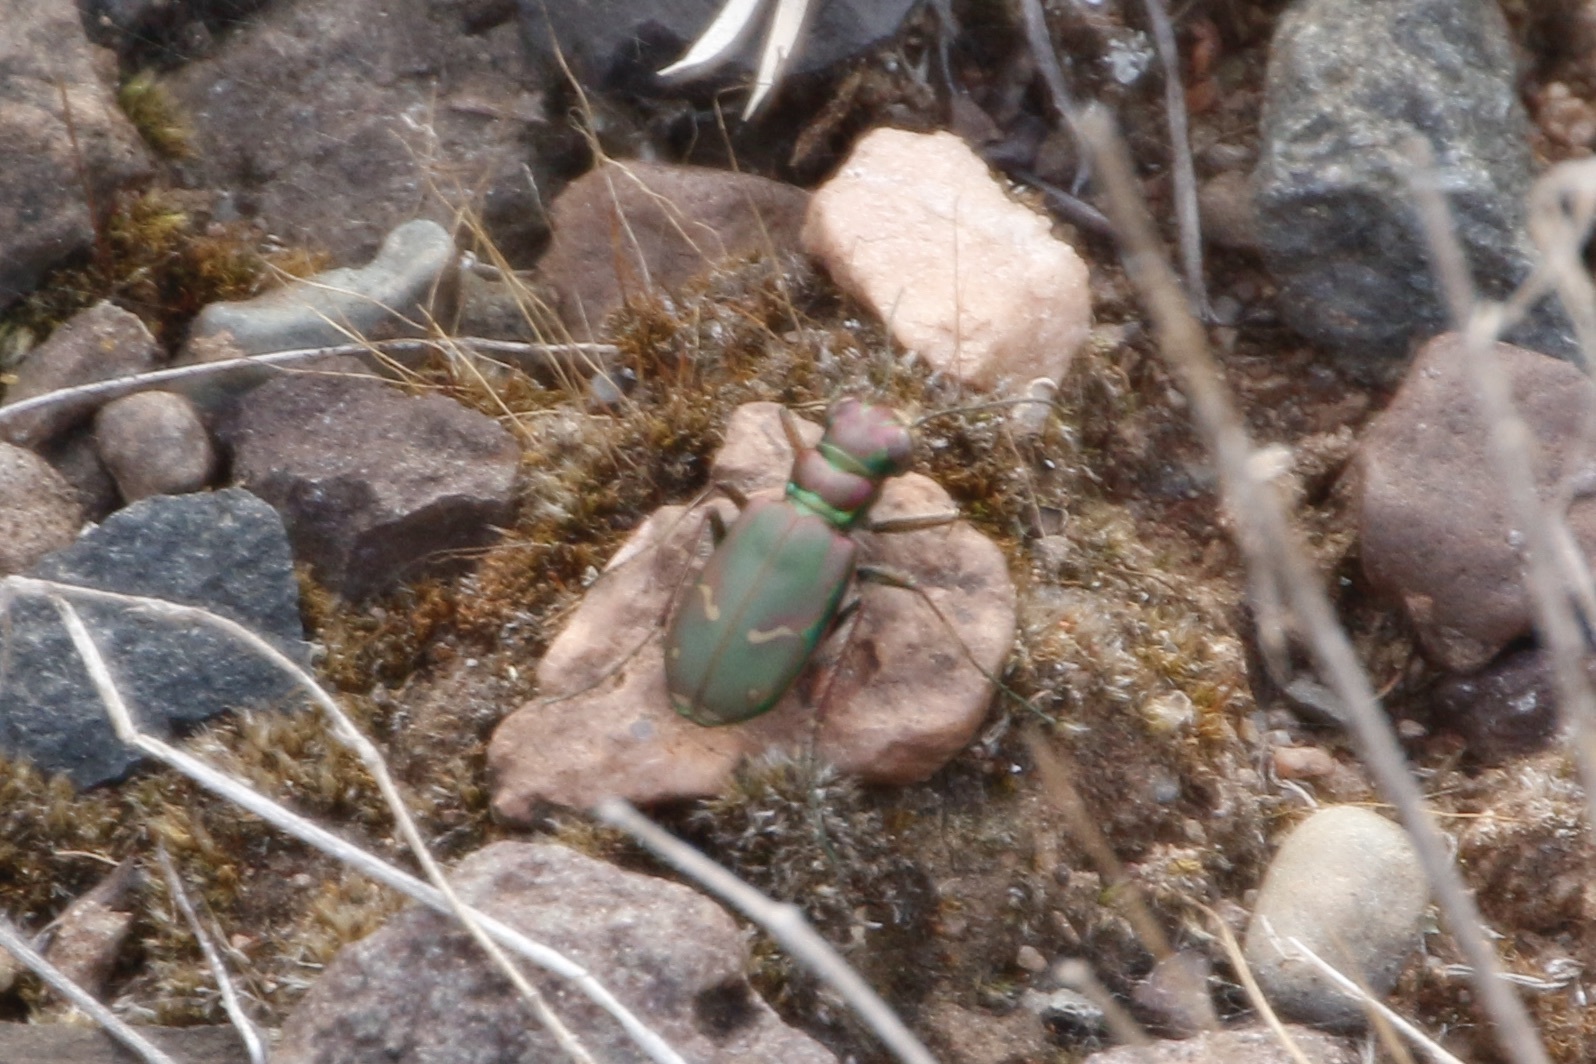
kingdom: Animalia
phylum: Arthropoda
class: Insecta
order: Coleoptera
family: Carabidae
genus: Cicindela
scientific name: Cicindela purpurea
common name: Cow path tiger beetle
